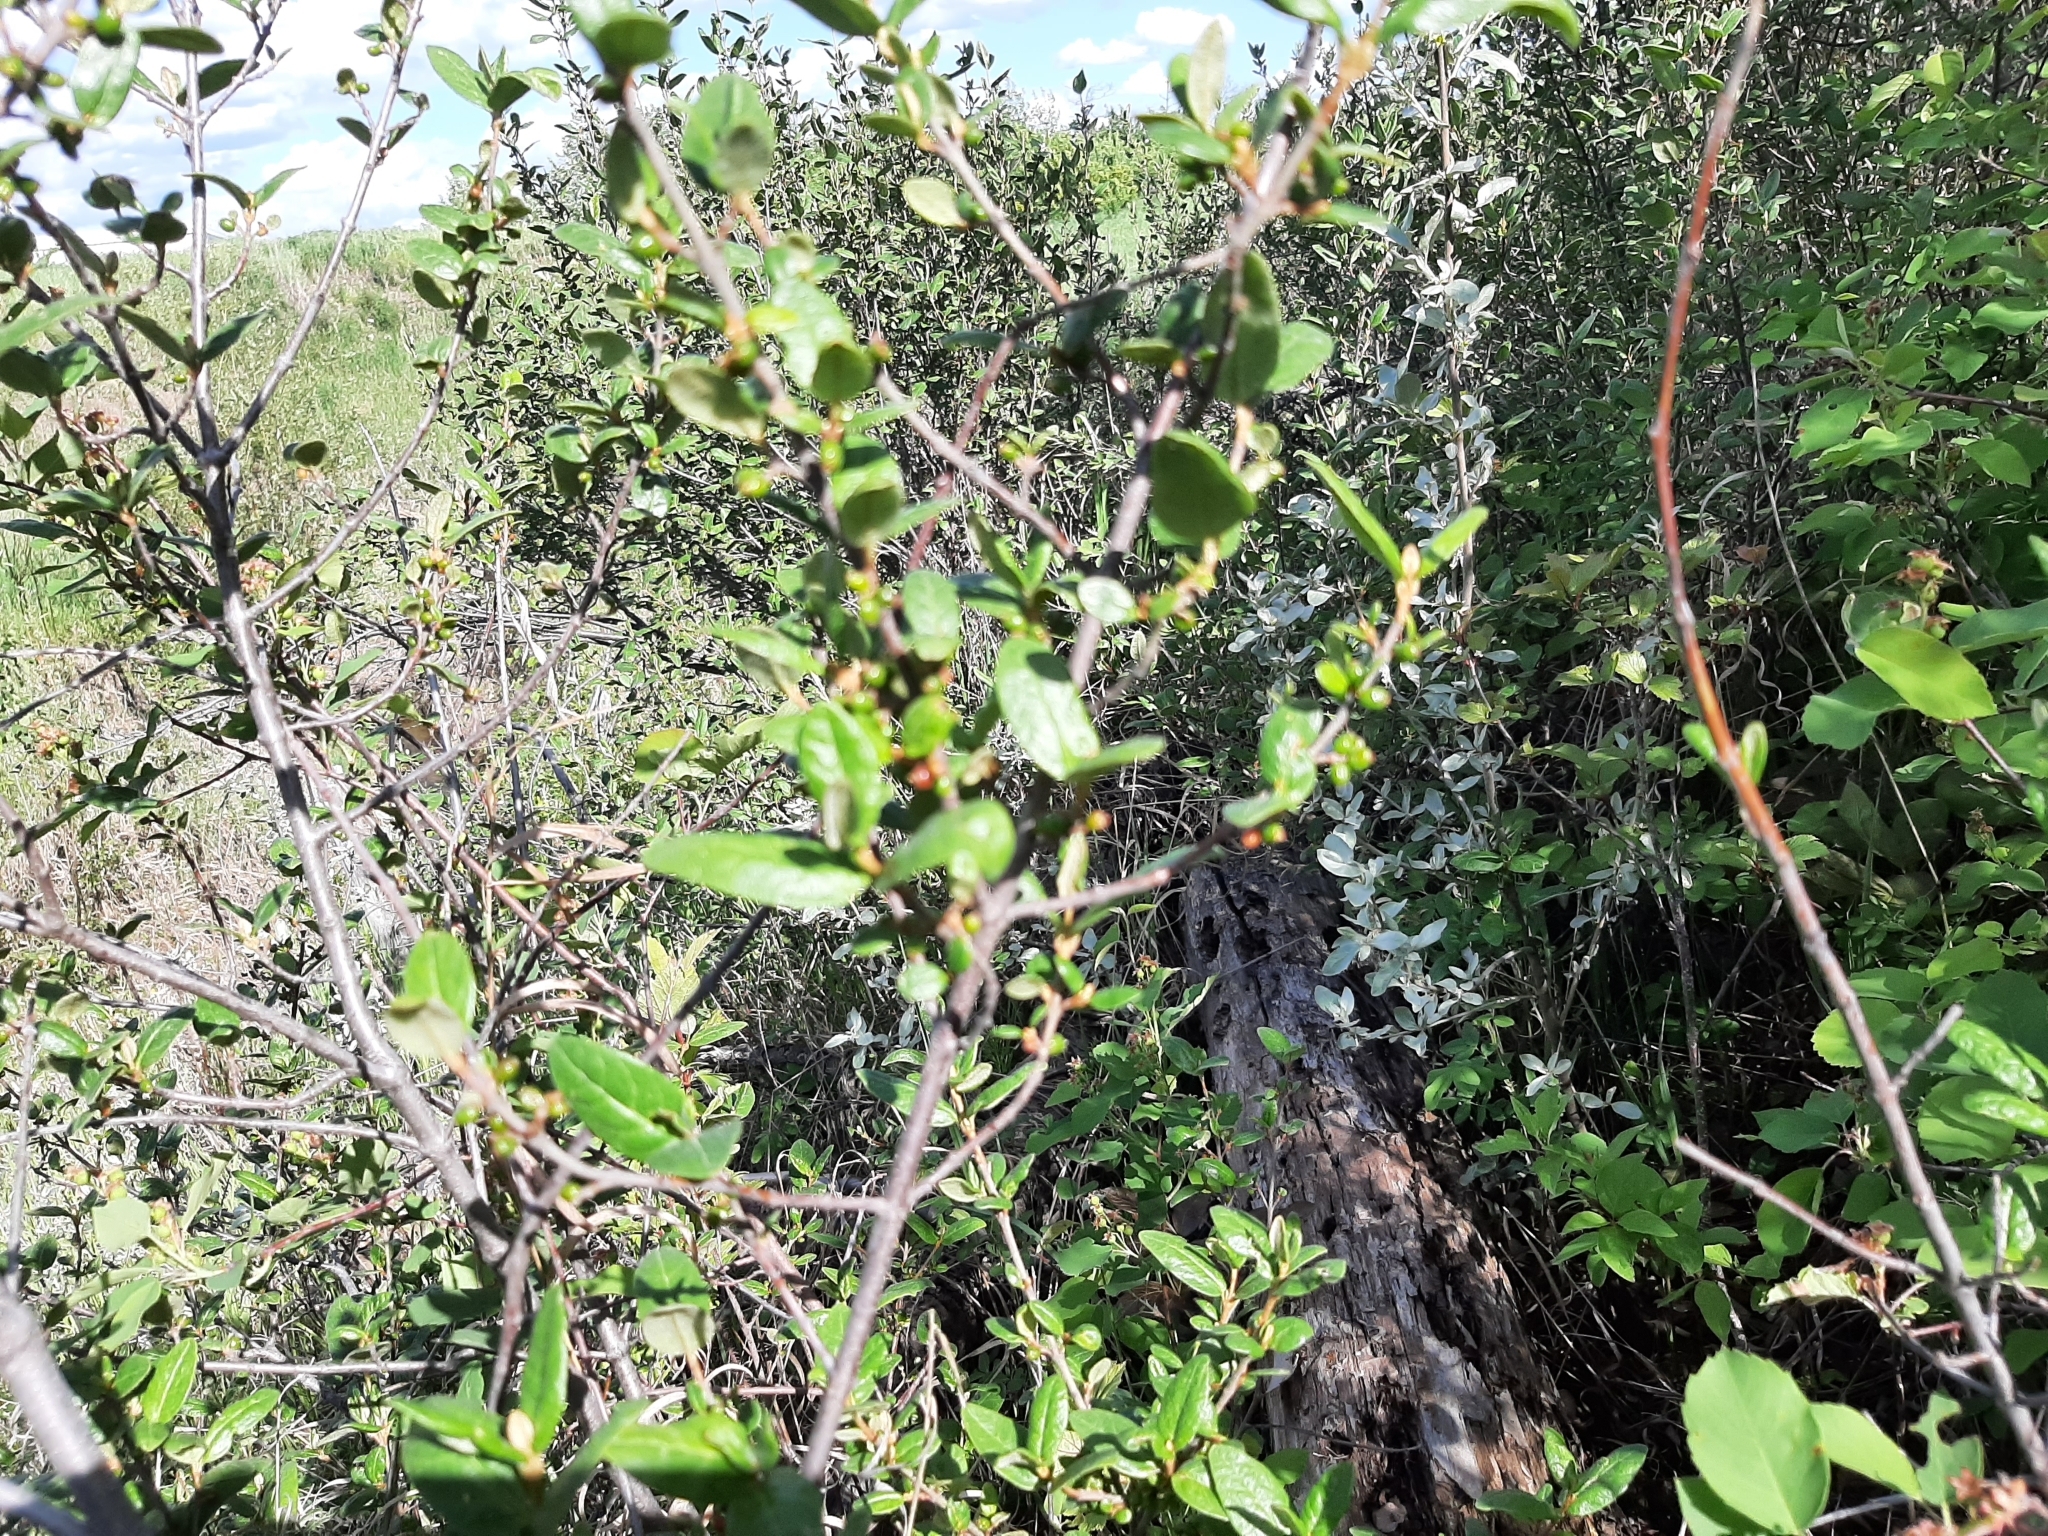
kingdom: Plantae
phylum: Tracheophyta
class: Magnoliopsida
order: Rosales
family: Elaeagnaceae
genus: Shepherdia
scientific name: Shepherdia canadensis
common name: Soapberry
